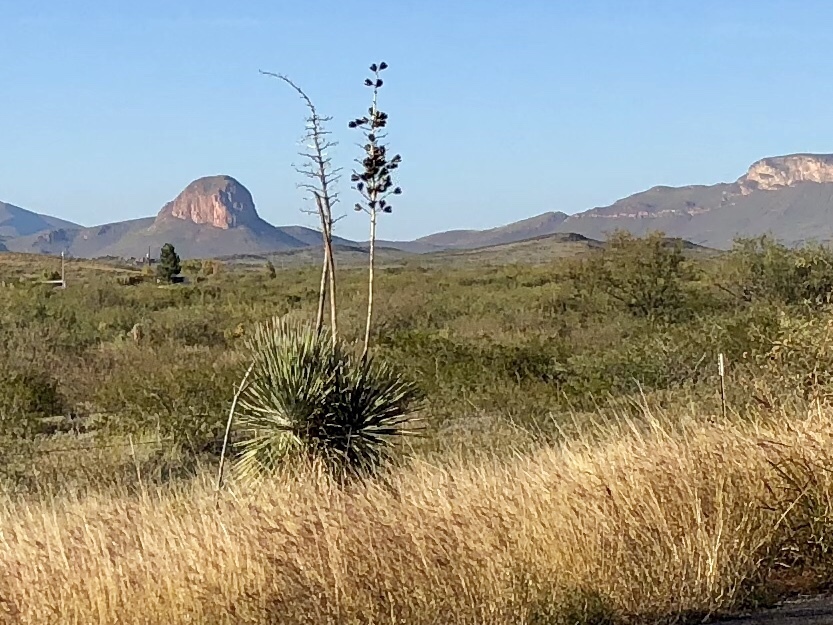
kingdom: Plantae
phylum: Tracheophyta
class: Liliopsida
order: Asparagales
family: Asparagaceae
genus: Yucca
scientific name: Yucca elata
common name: Palmella
